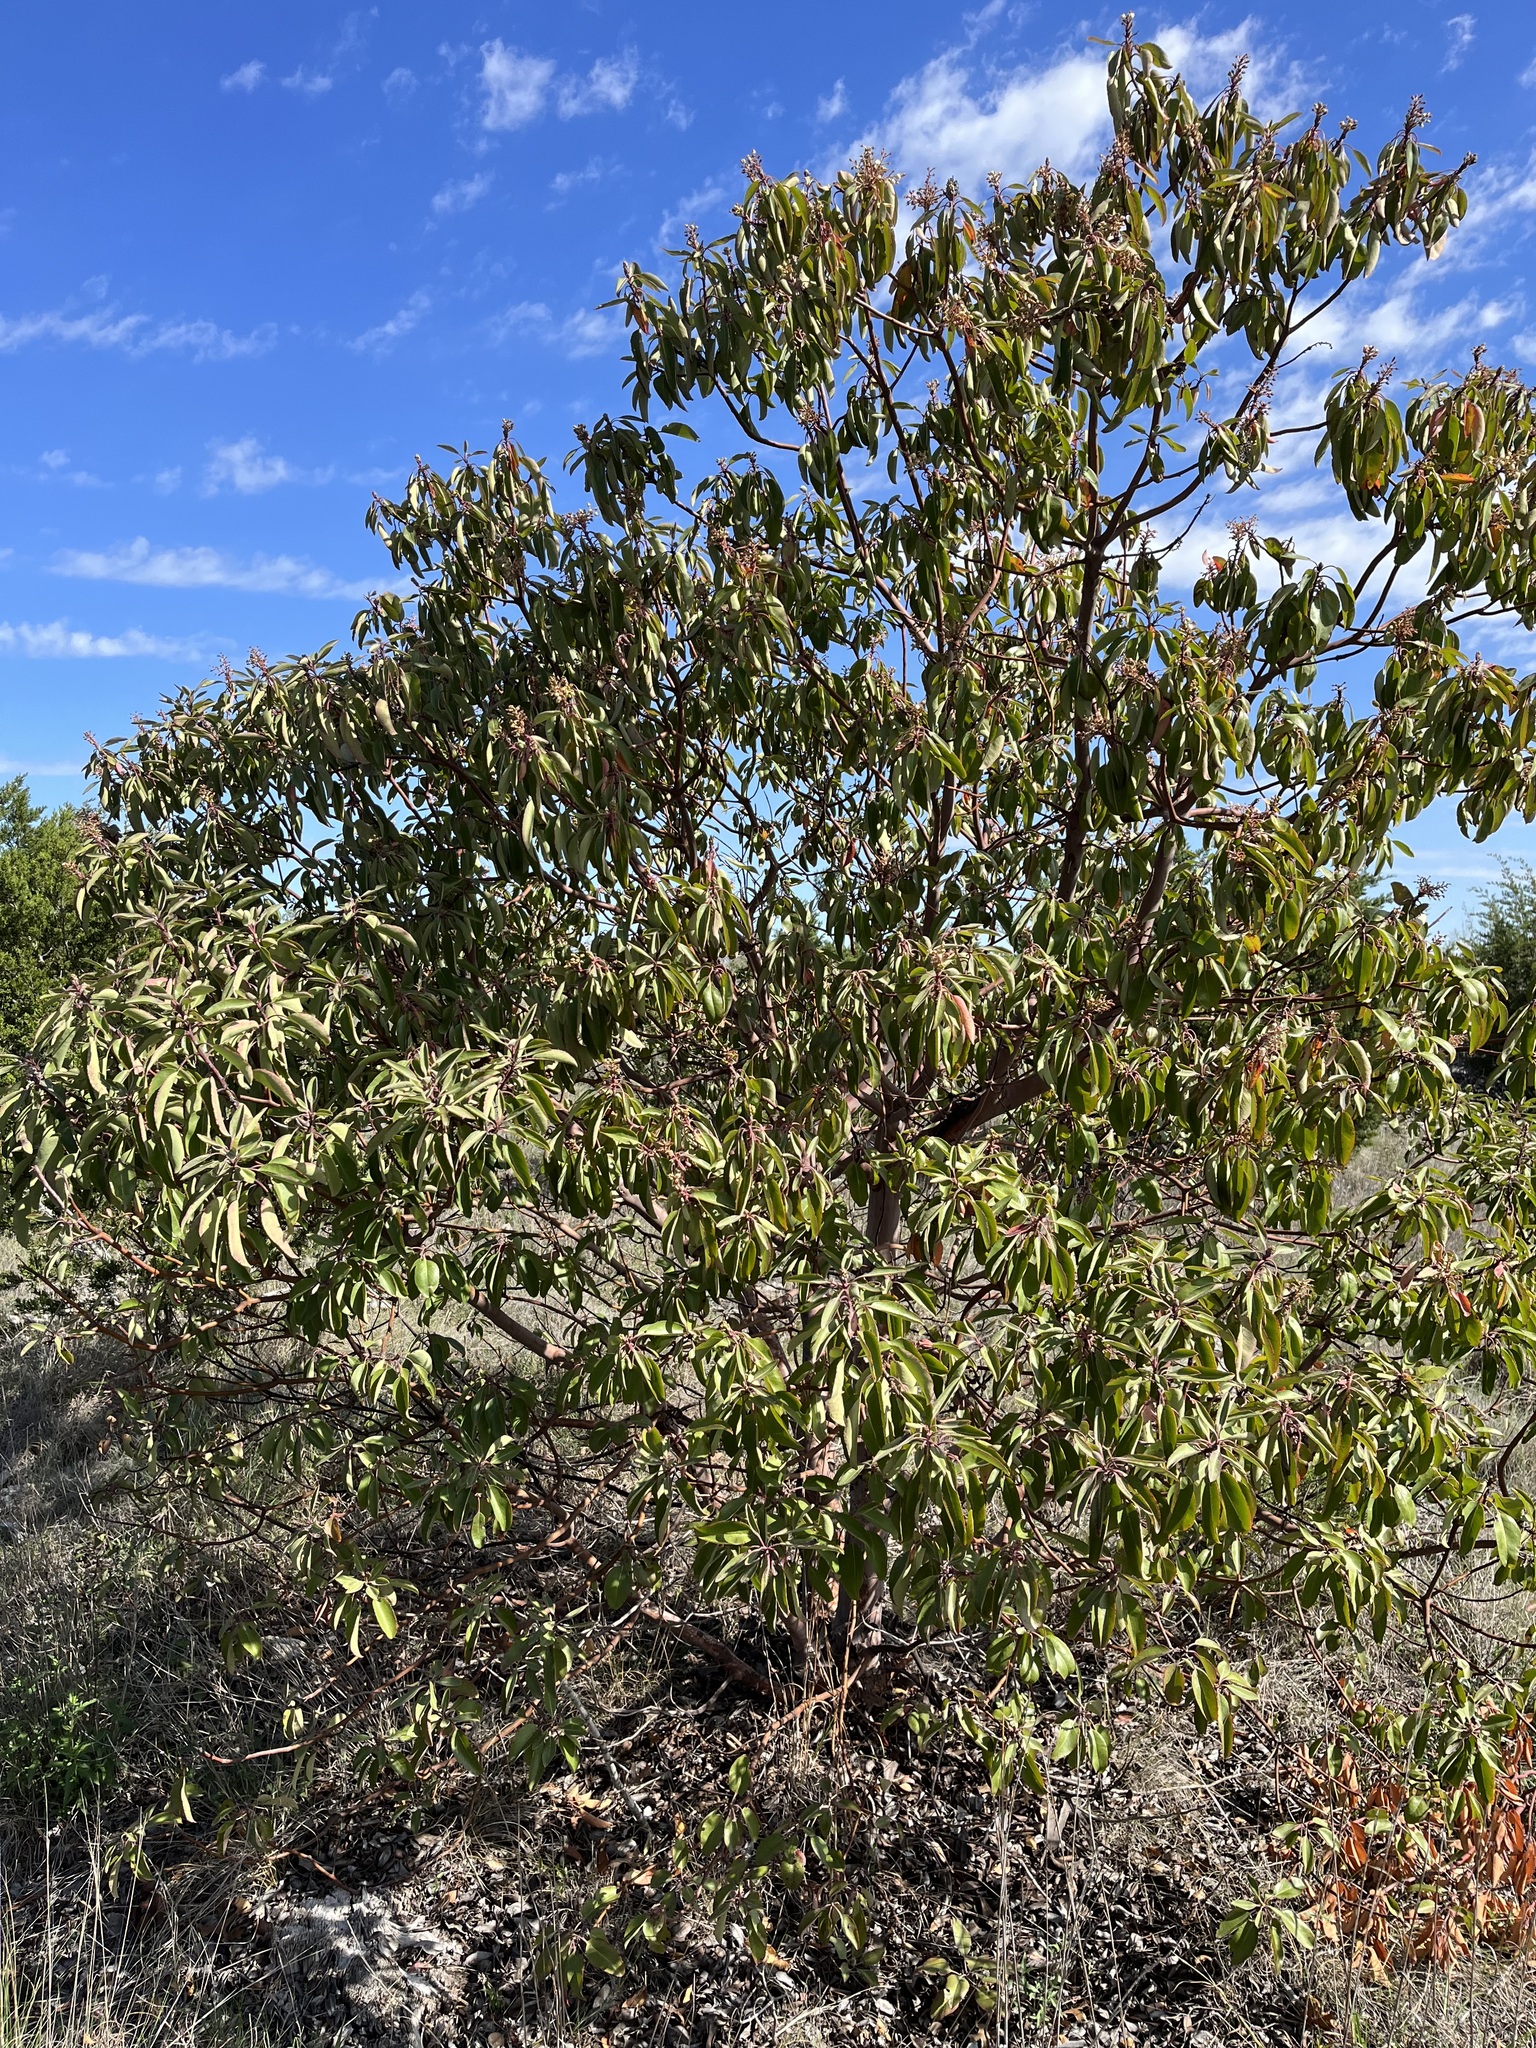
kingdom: Plantae
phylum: Tracheophyta
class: Magnoliopsida
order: Ericales
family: Ericaceae
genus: Arbutus
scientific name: Arbutus xalapensis
